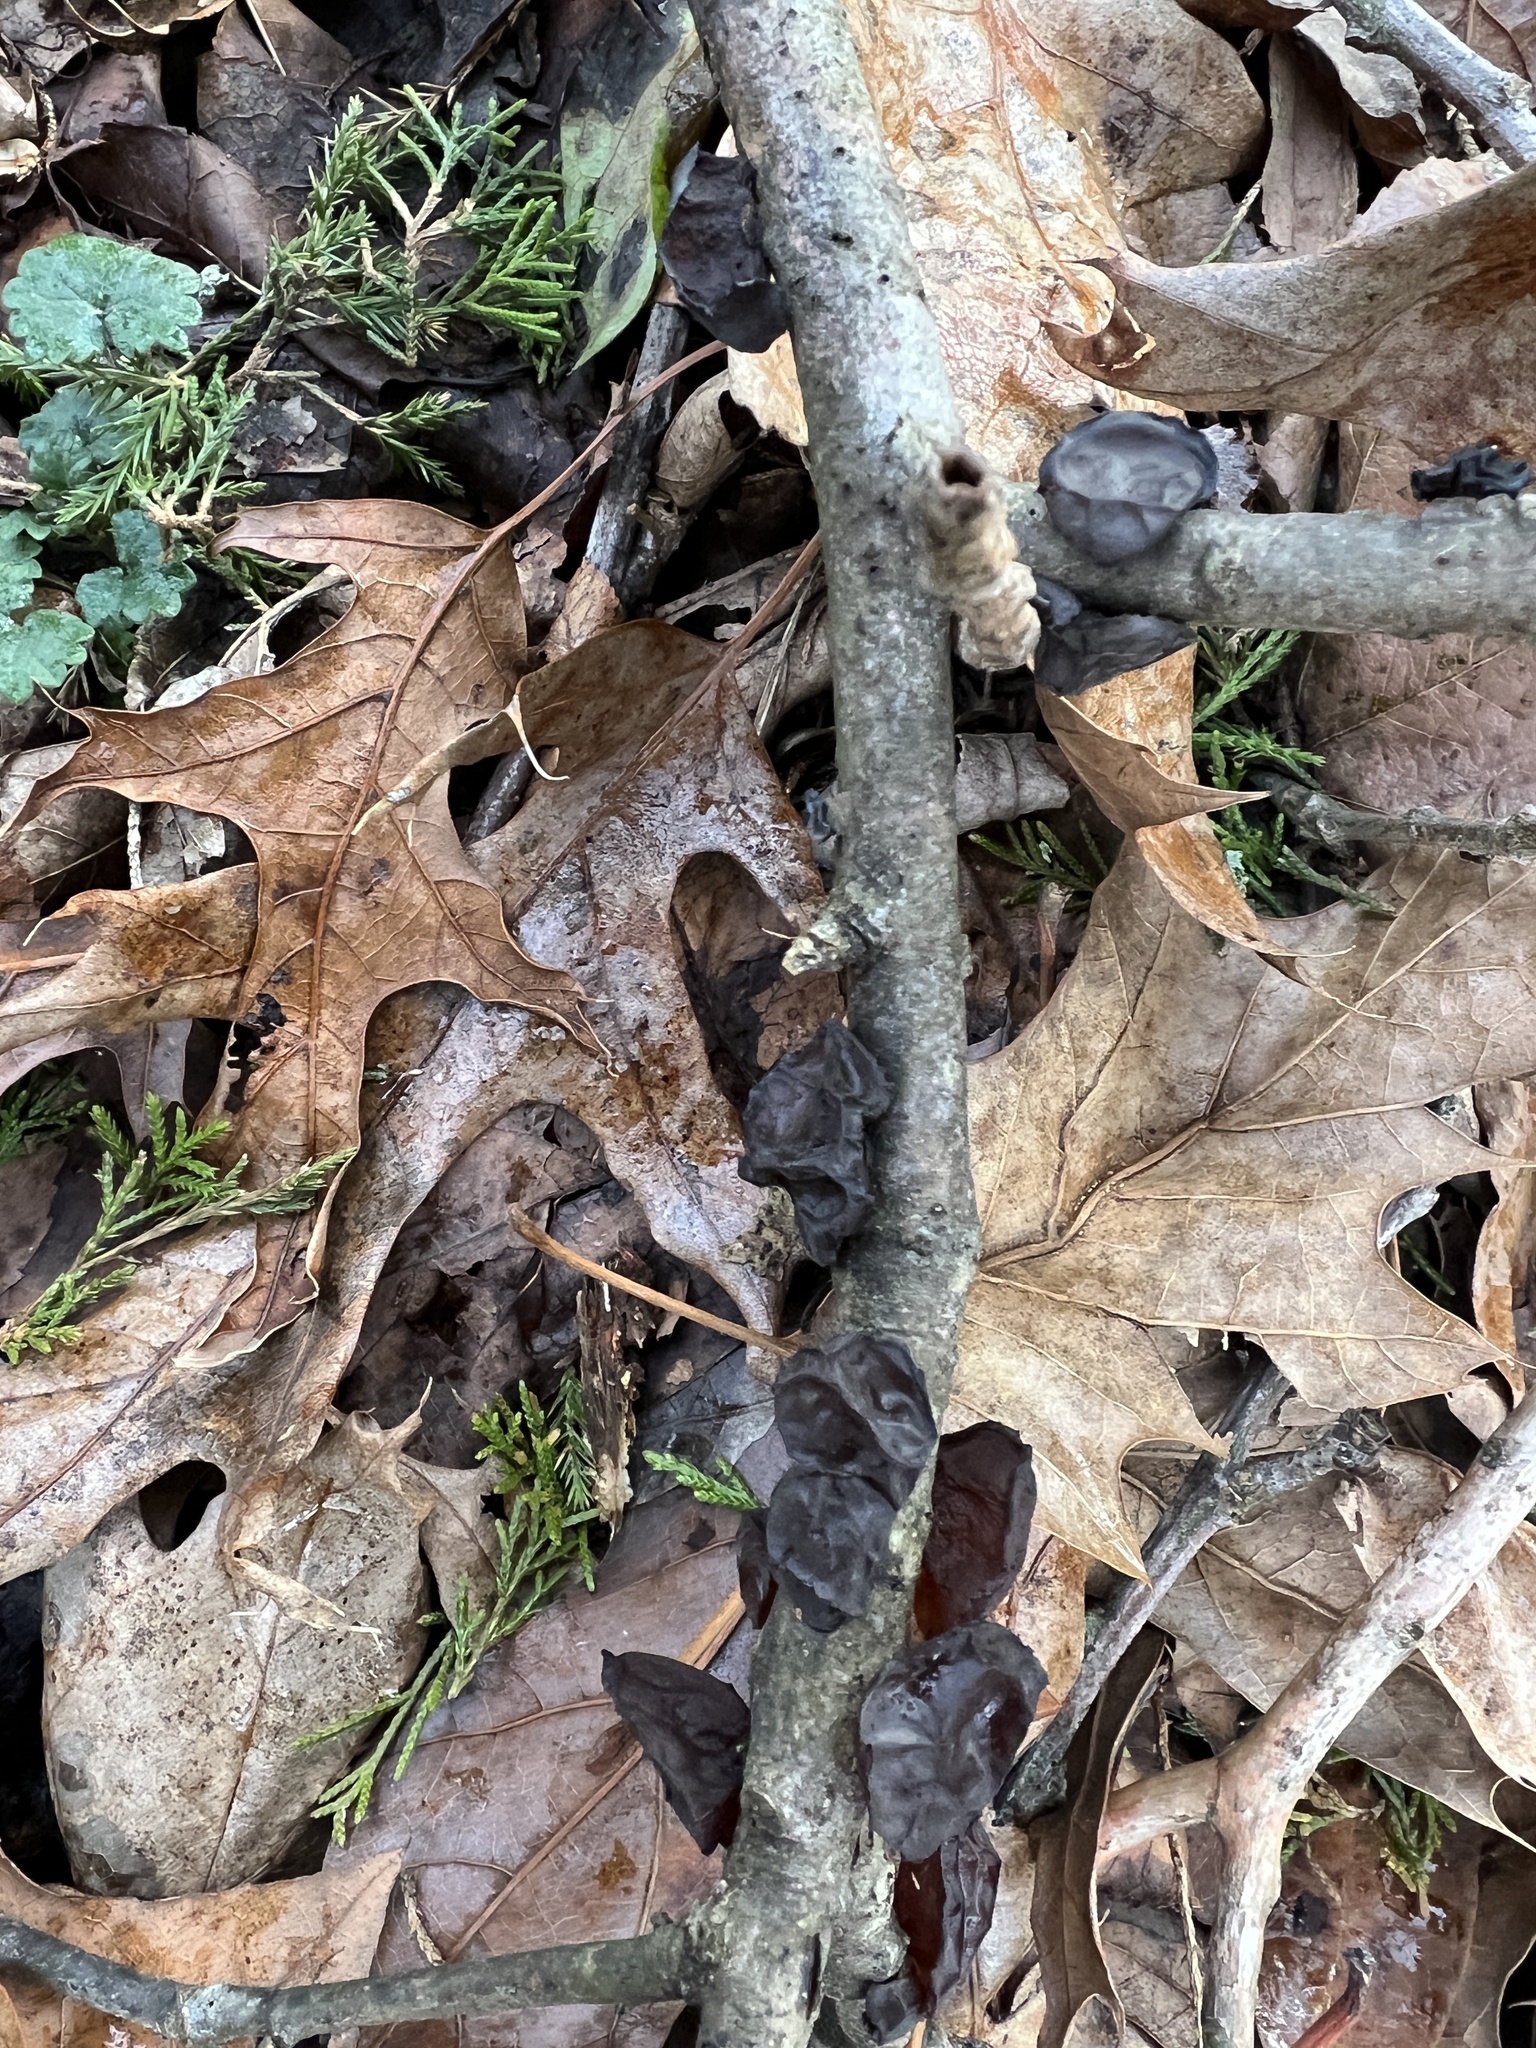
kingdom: Fungi
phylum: Basidiomycota
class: Agaricomycetes
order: Auriculariales
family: Auriculariaceae
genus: Exidia
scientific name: Exidia
